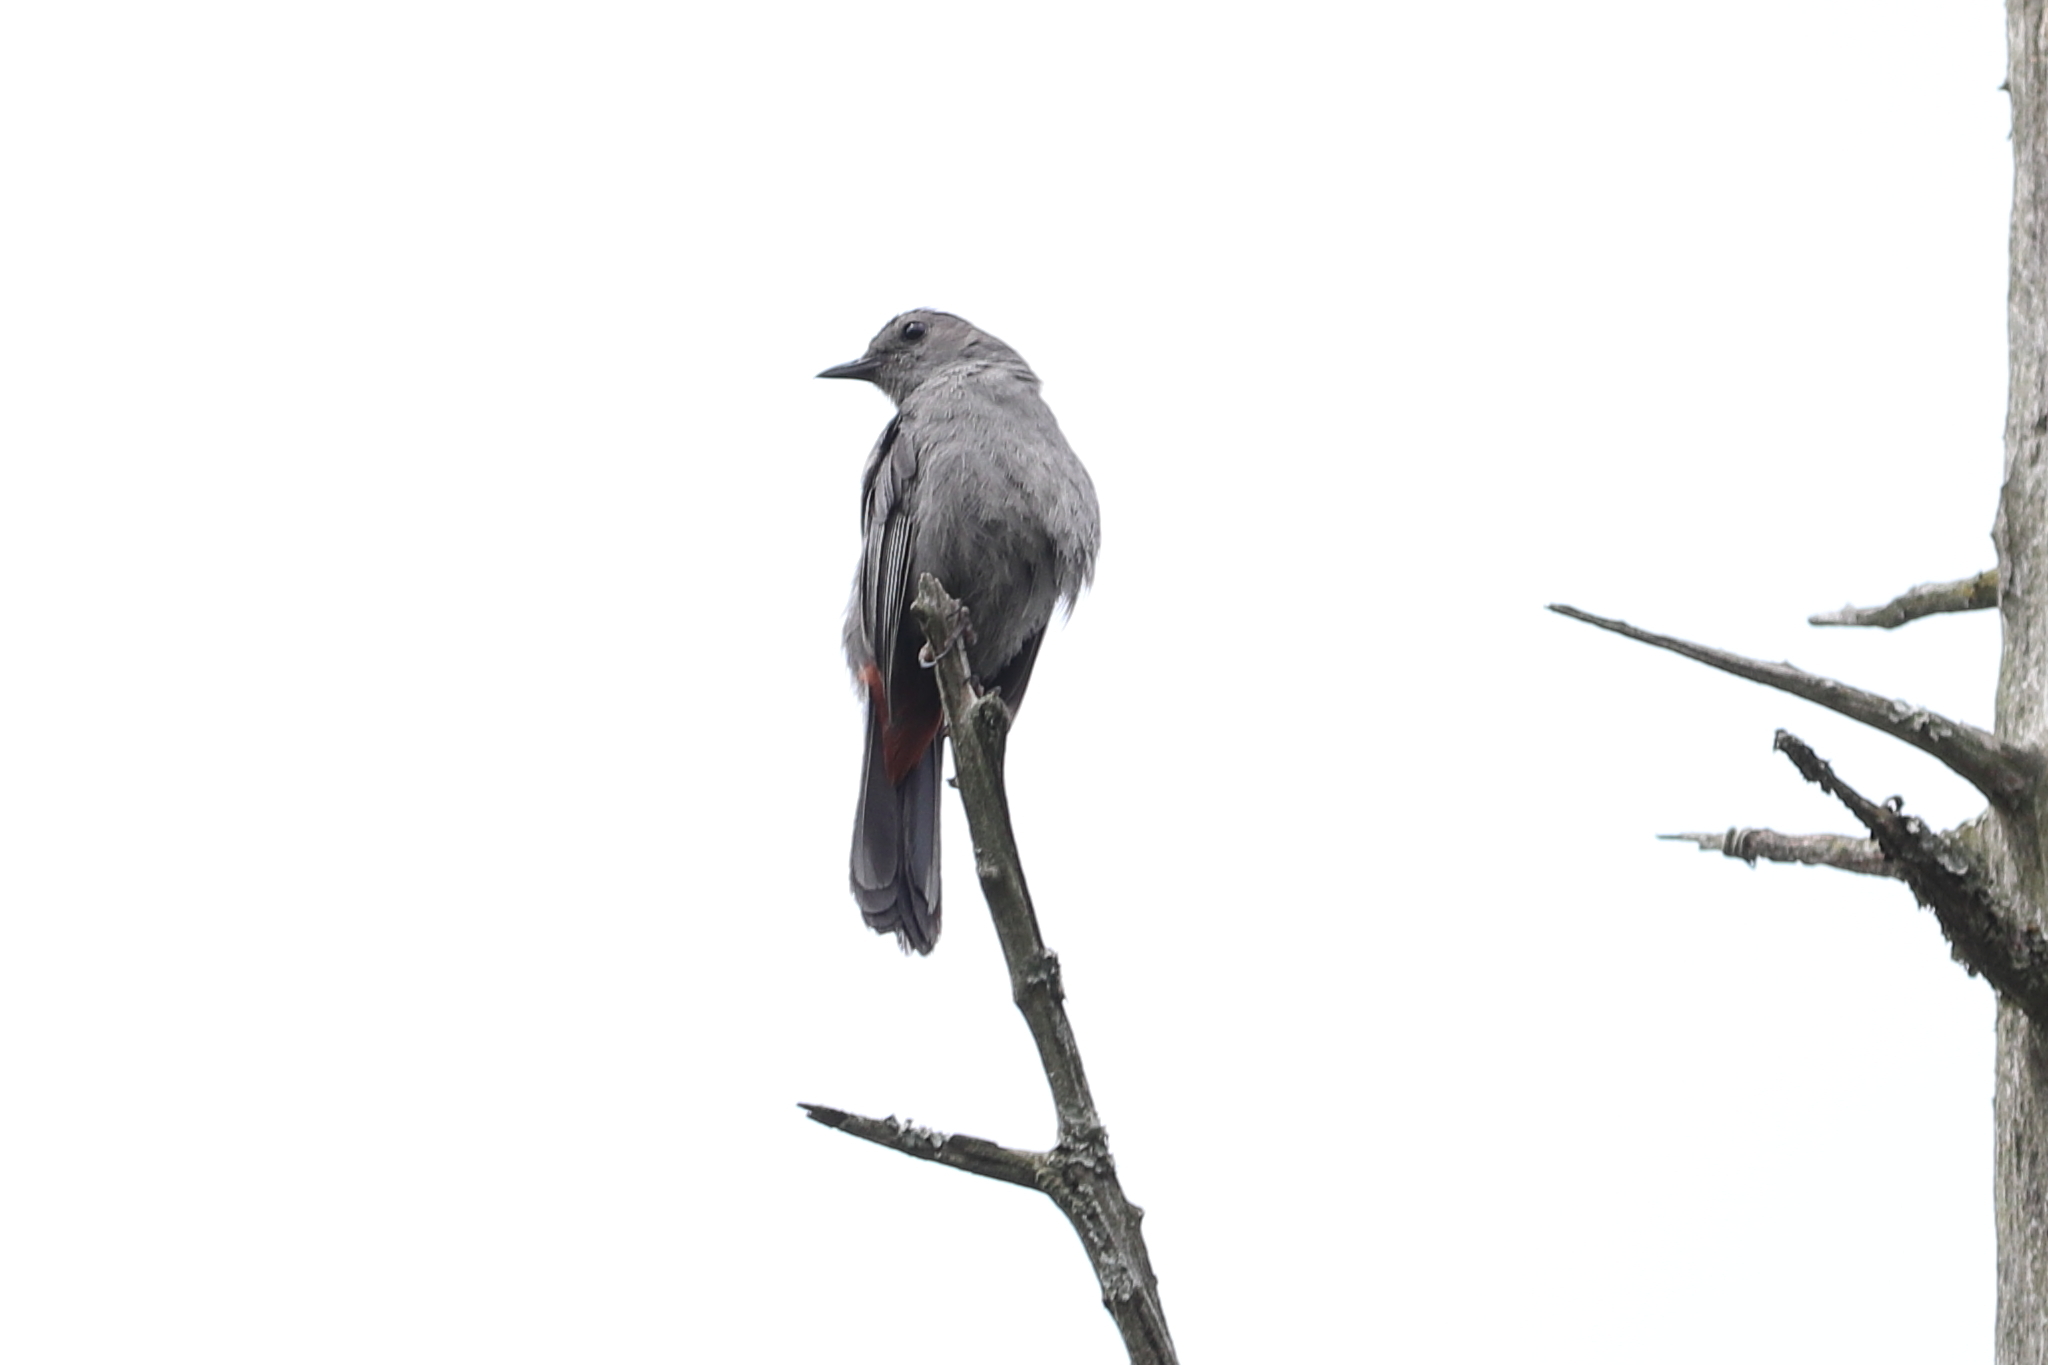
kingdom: Animalia
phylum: Chordata
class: Aves
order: Passeriformes
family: Mimidae
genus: Dumetella
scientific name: Dumetella carolinensis
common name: Gray catbird
